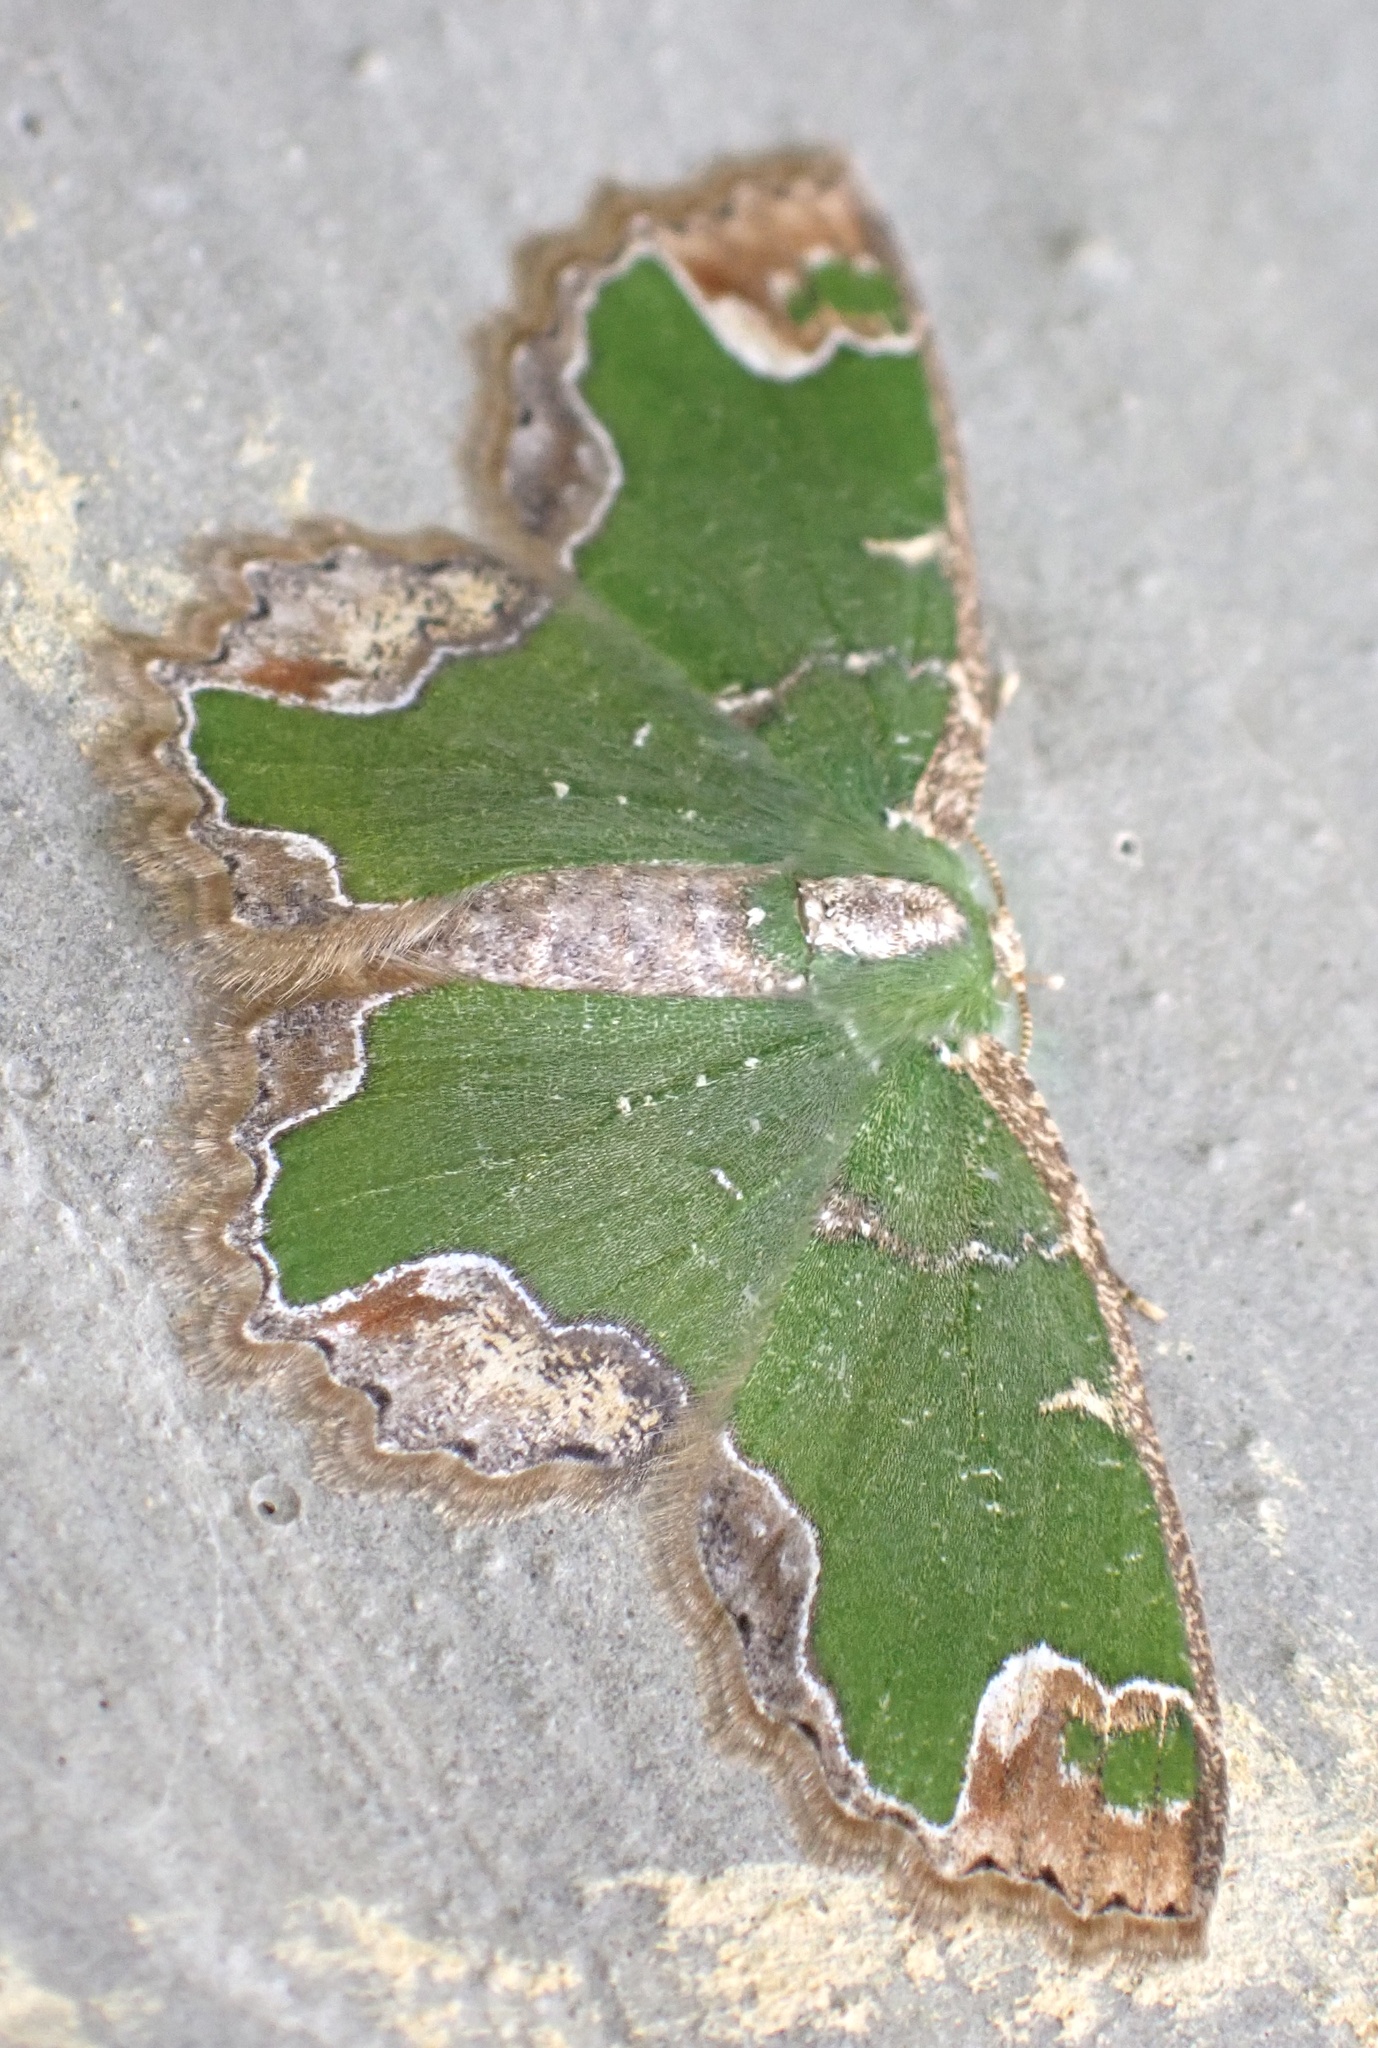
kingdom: Animalia
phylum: Arthropoda
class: Insecta
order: Lepidoptera
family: Geometridae
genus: Eucyclodes
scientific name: Eucyclodes decorata
